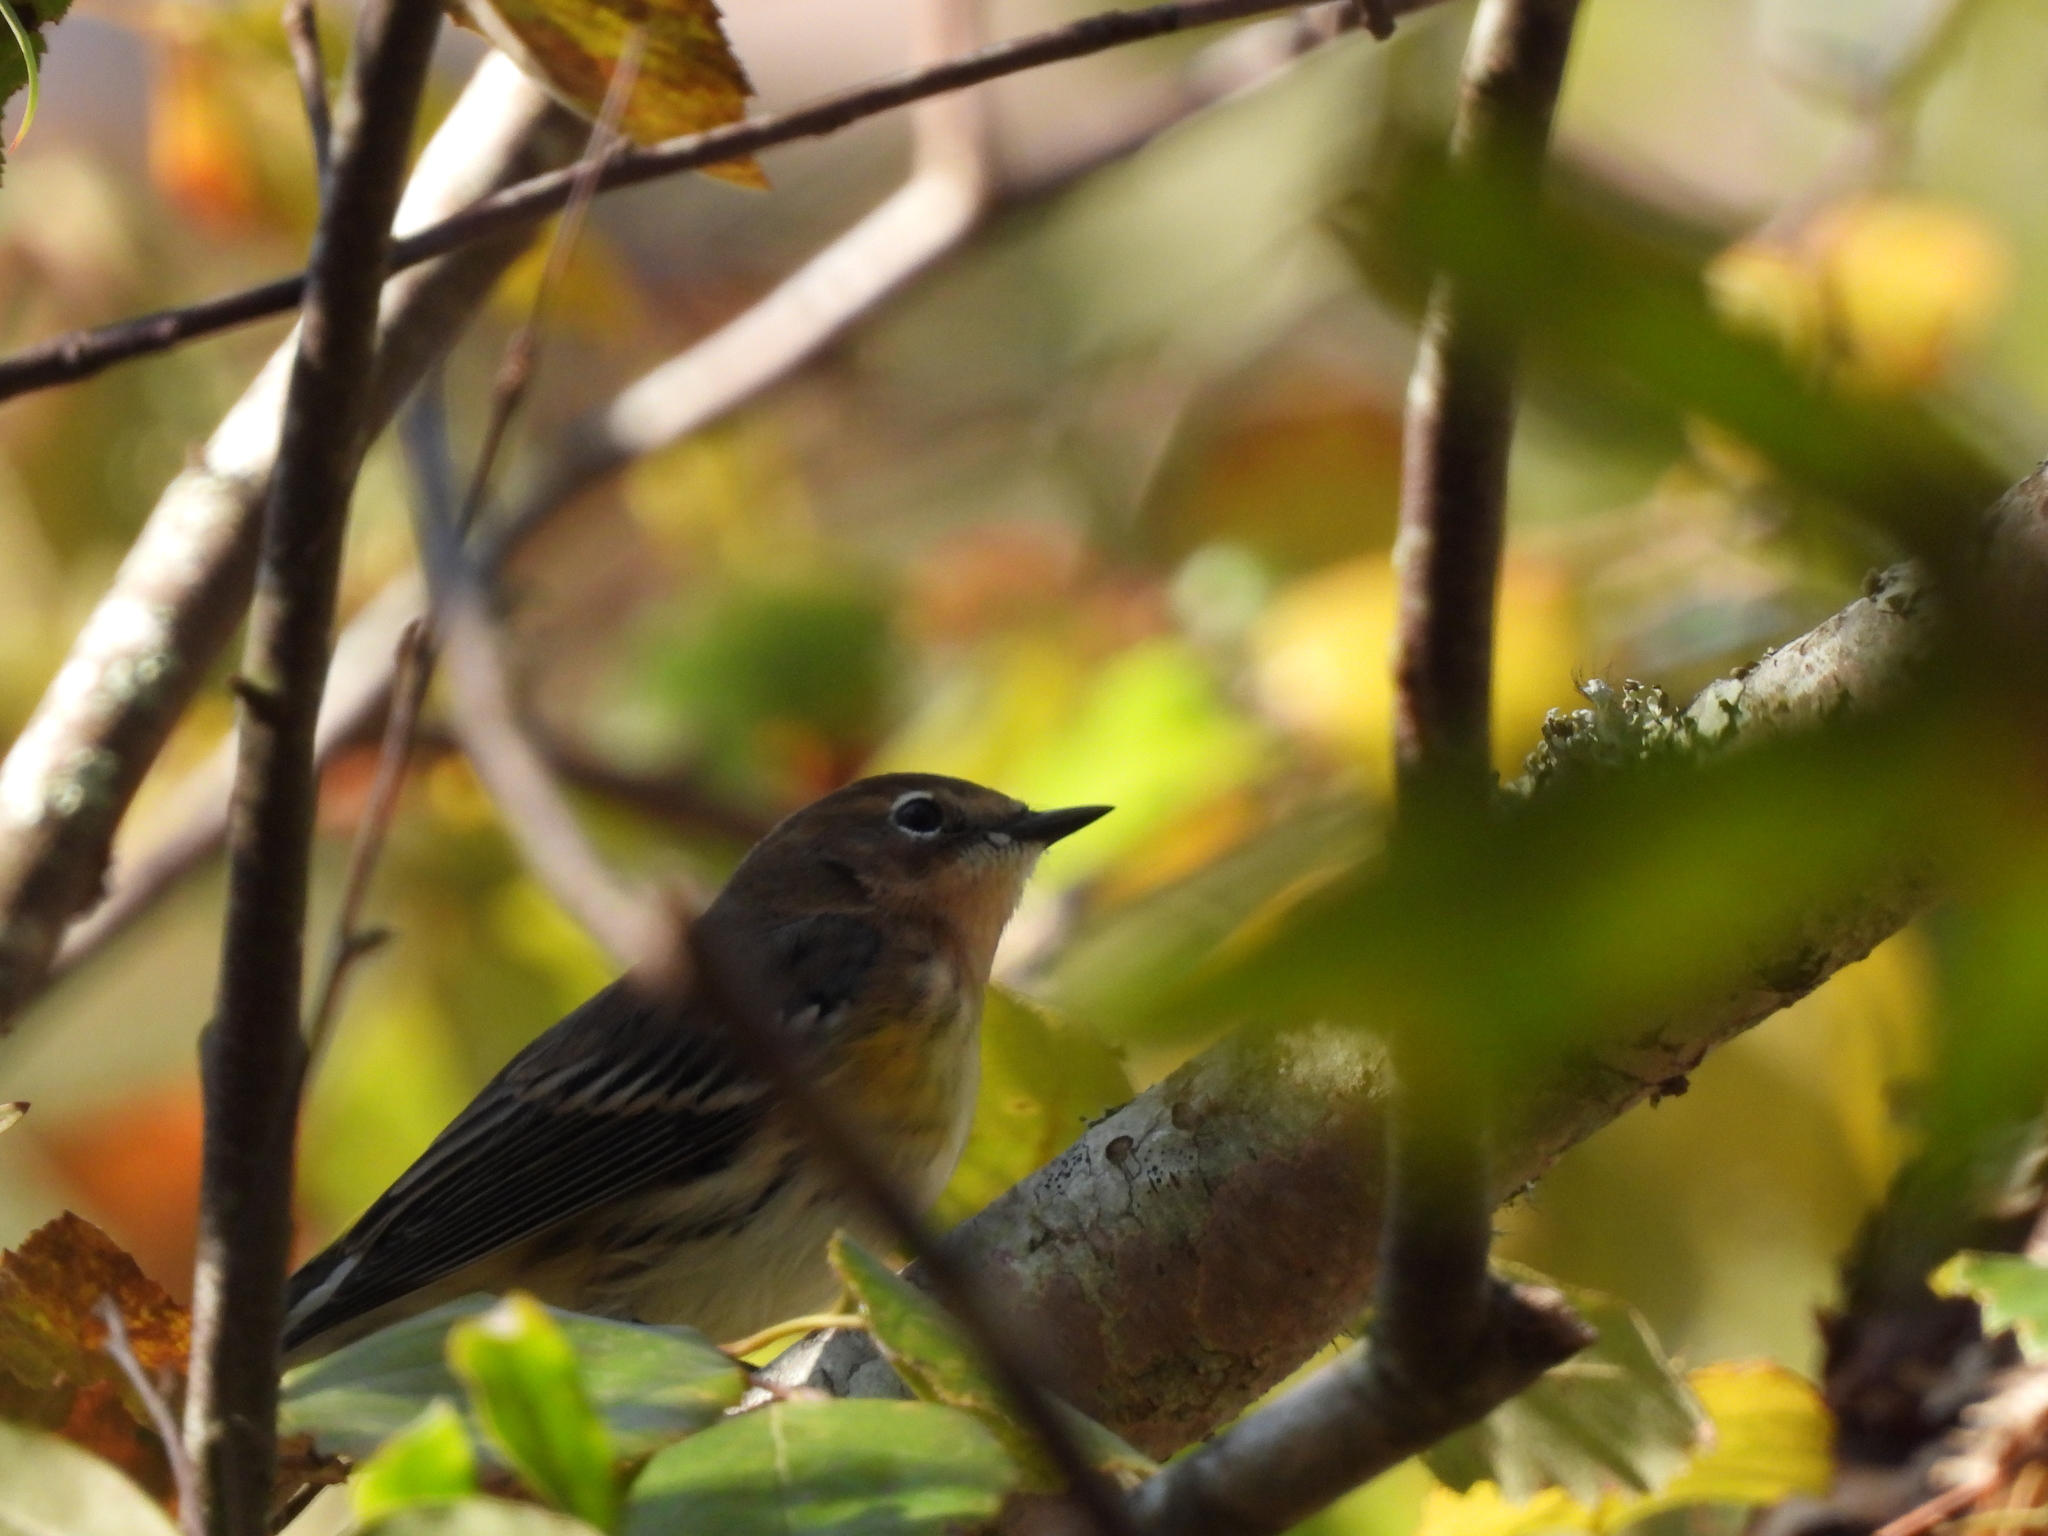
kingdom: Animalia
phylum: Chordata
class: Aves
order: Passeriformes
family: Parulidae
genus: Setophaga
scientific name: Setophaga coronata
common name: Myrtle warbler
